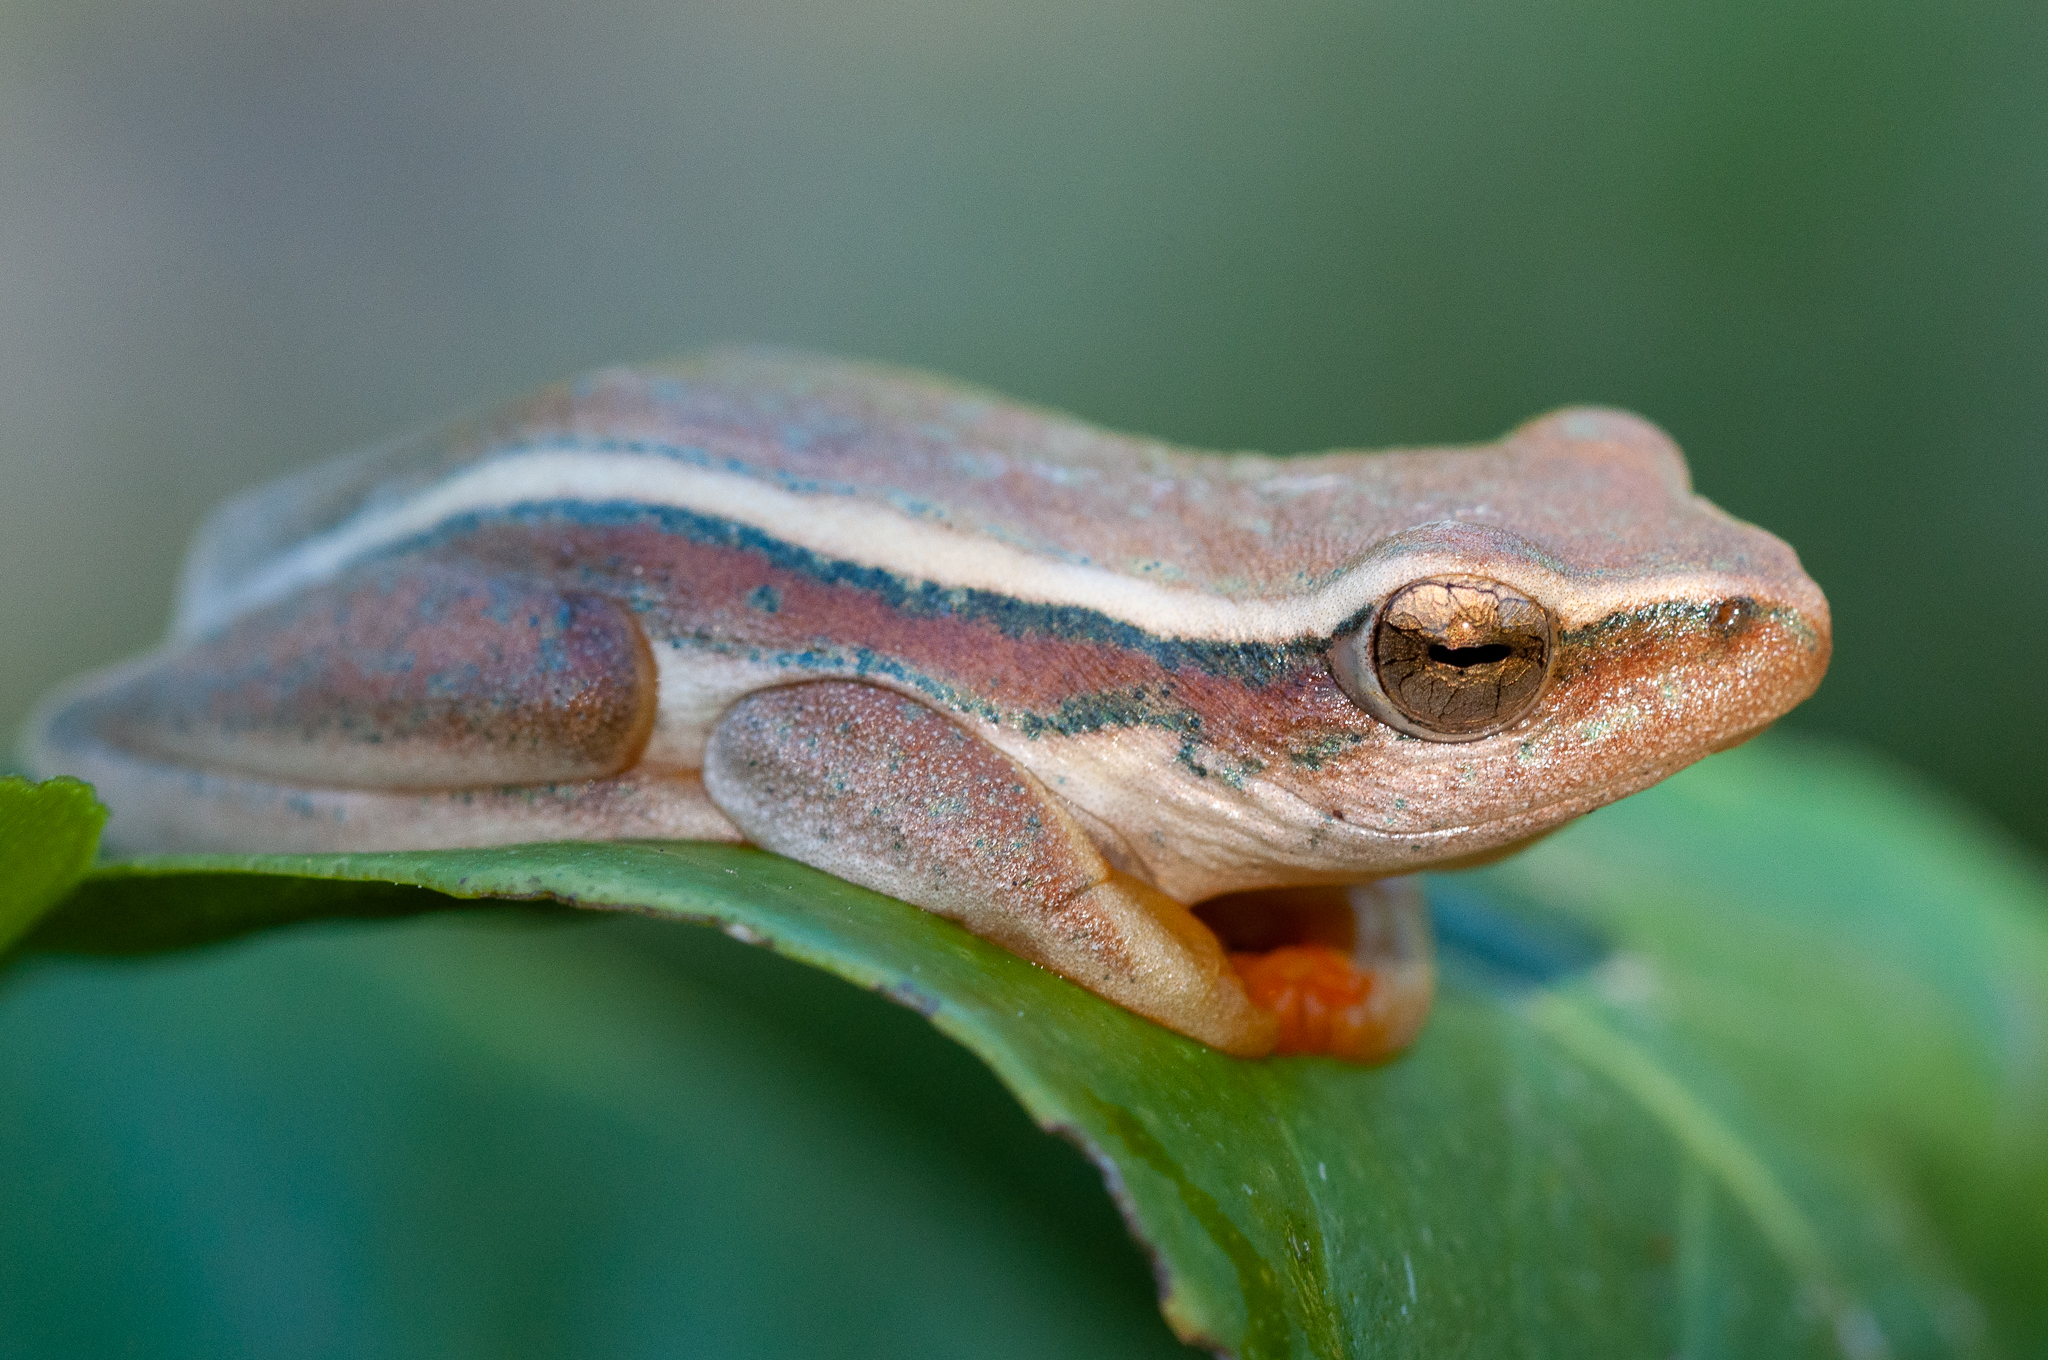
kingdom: Animalia
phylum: Chordata
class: Amphibia
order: Anura
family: Hyperoliidae
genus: Hyperolius
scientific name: Hyperolius horstockii
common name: Arum lily frog
